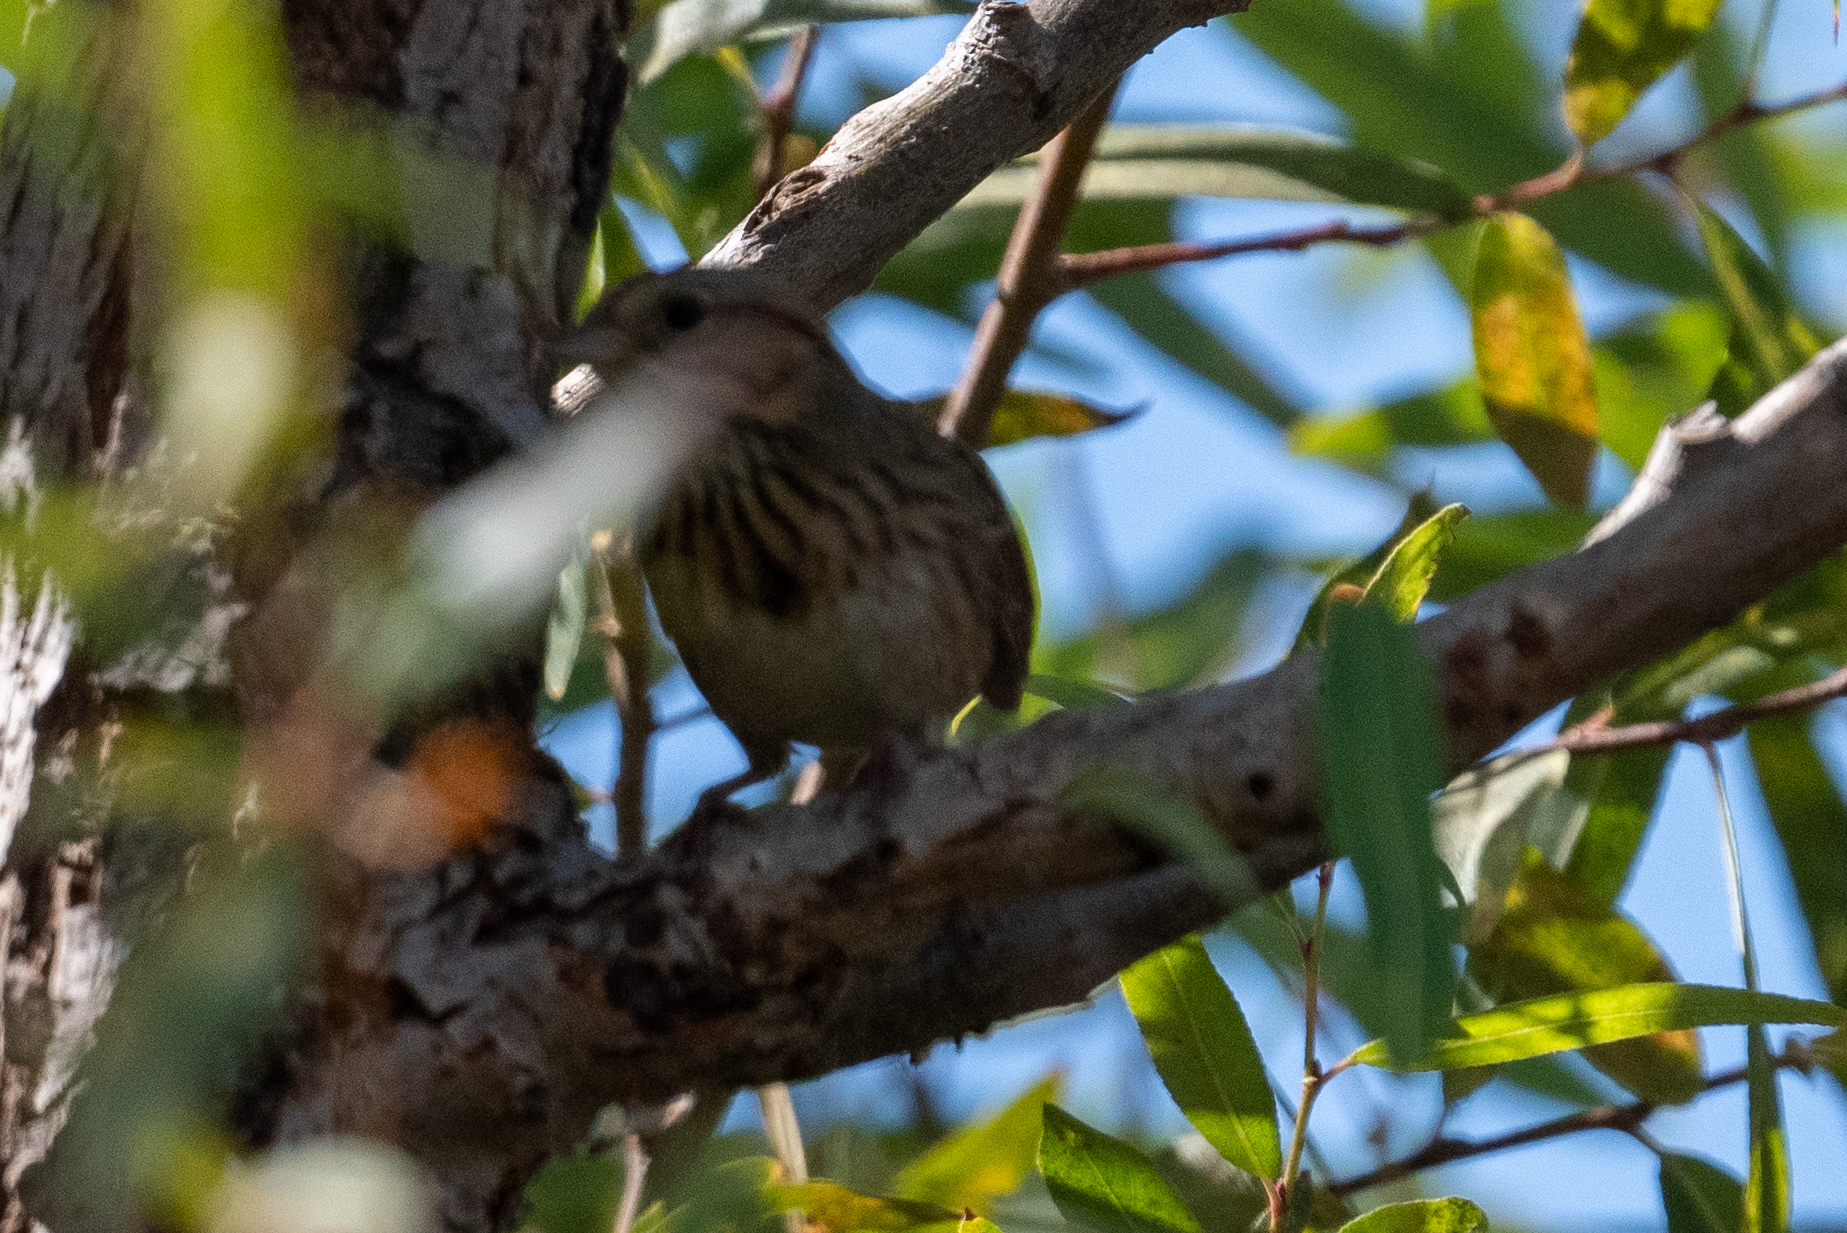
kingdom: Animalia
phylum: Chordata
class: Aves
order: Passeriformes
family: Passerellidae
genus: Melospiza
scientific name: Melospiza lincolnii
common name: Lincoln's sparrow
